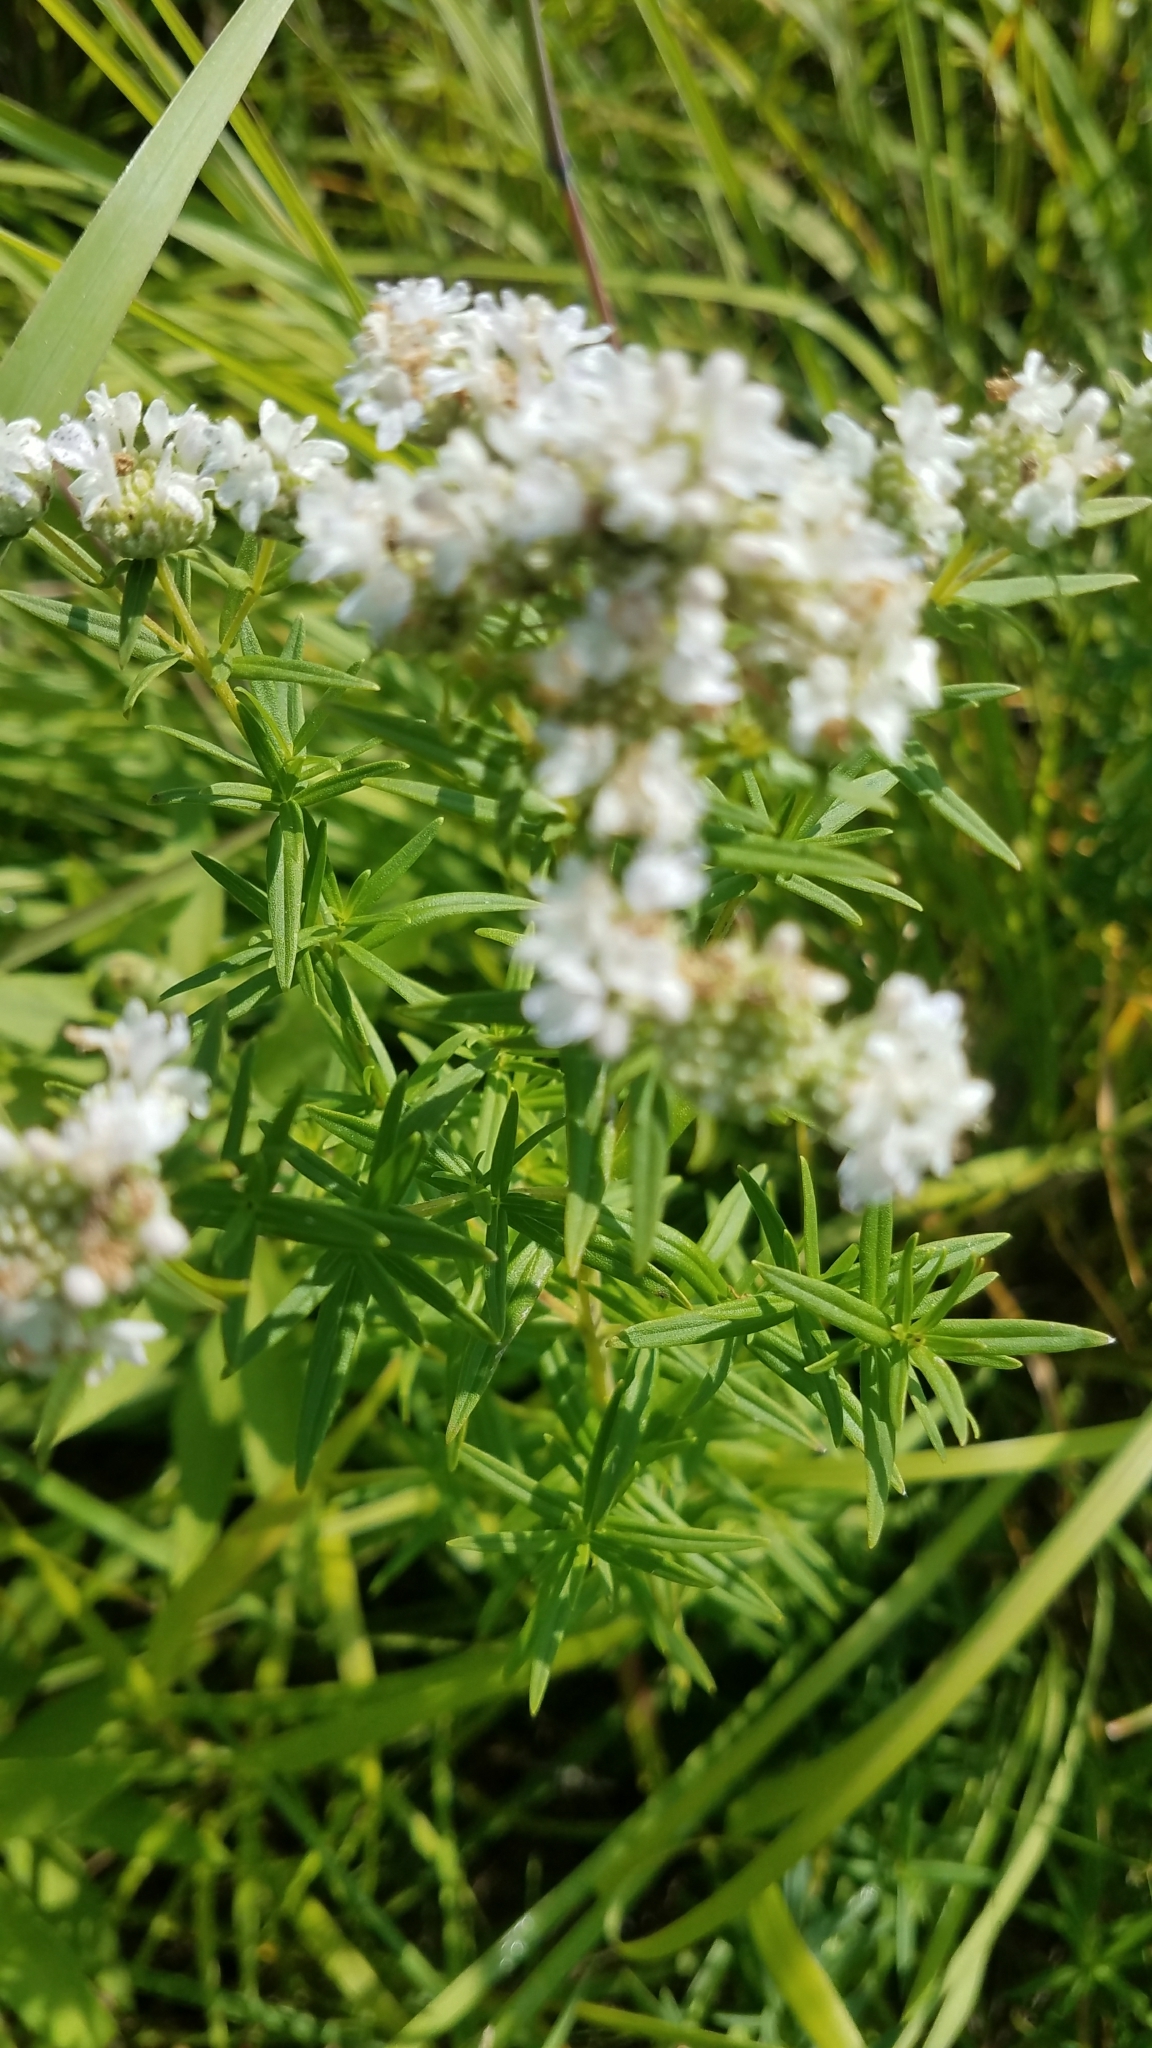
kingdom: Plantae
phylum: Tracheophyta
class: Magnoliopsida
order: Lamiales
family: Lamiaceae
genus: Pycnanthemum
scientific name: Pycnanthemum virginianum
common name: Virginia mountain-mint
